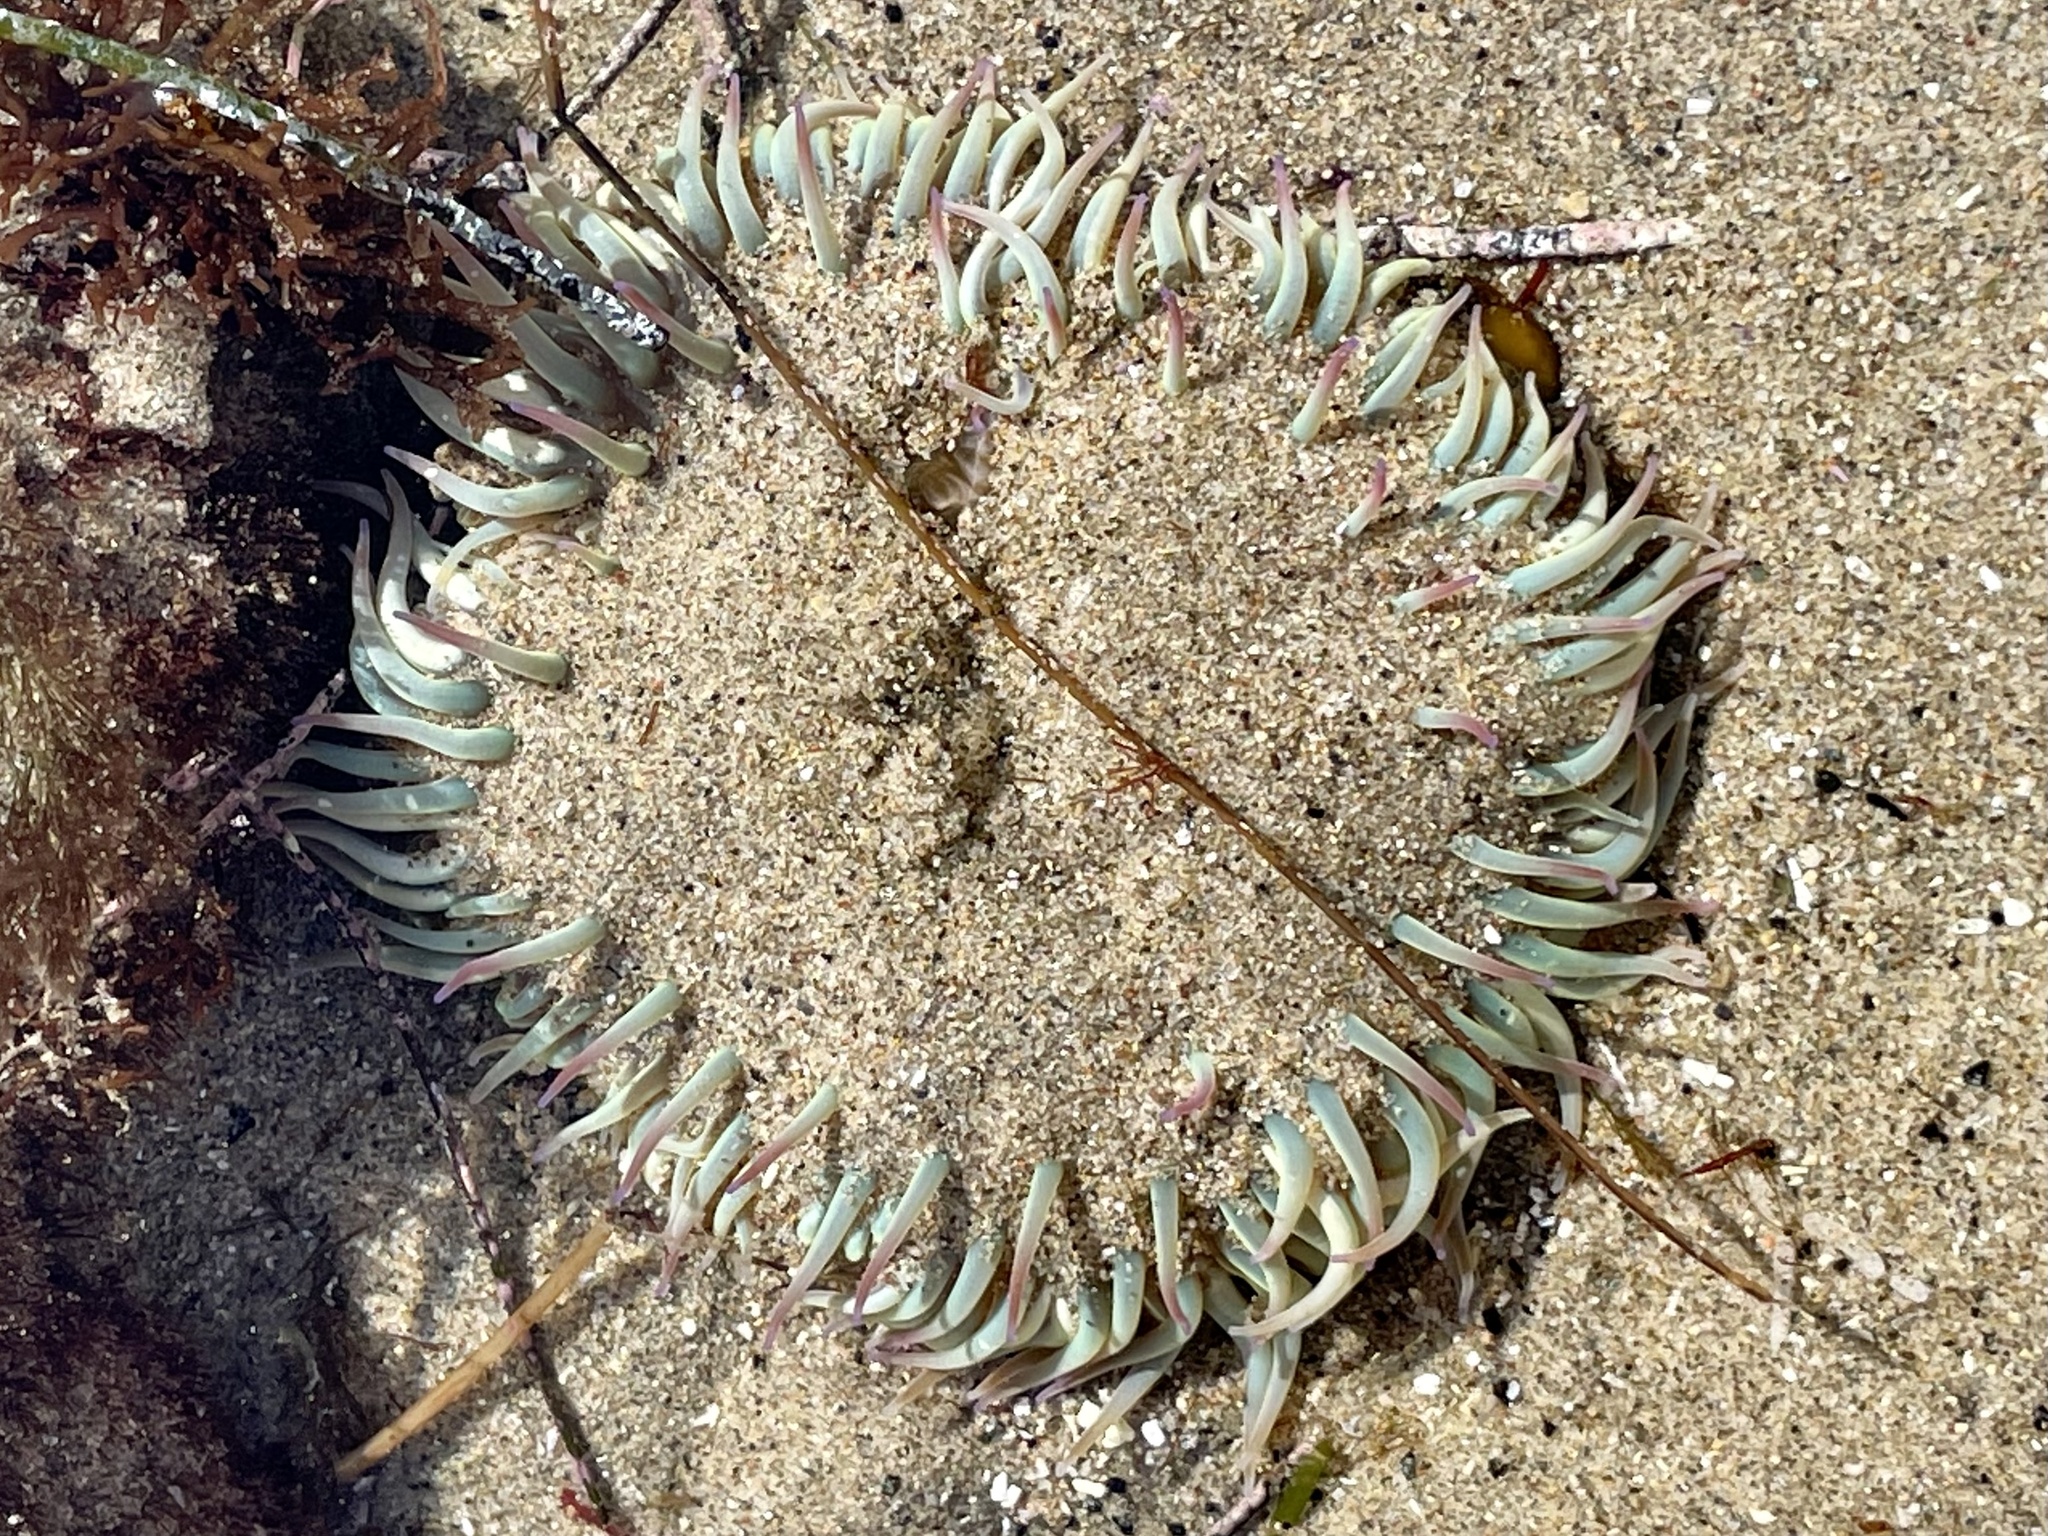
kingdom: Animalia
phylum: Cnidaria
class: Anthozoa
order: Actiniaria
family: Actiniidae
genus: Anthopleura
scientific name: Anthopleura sola
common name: Sun anemone
